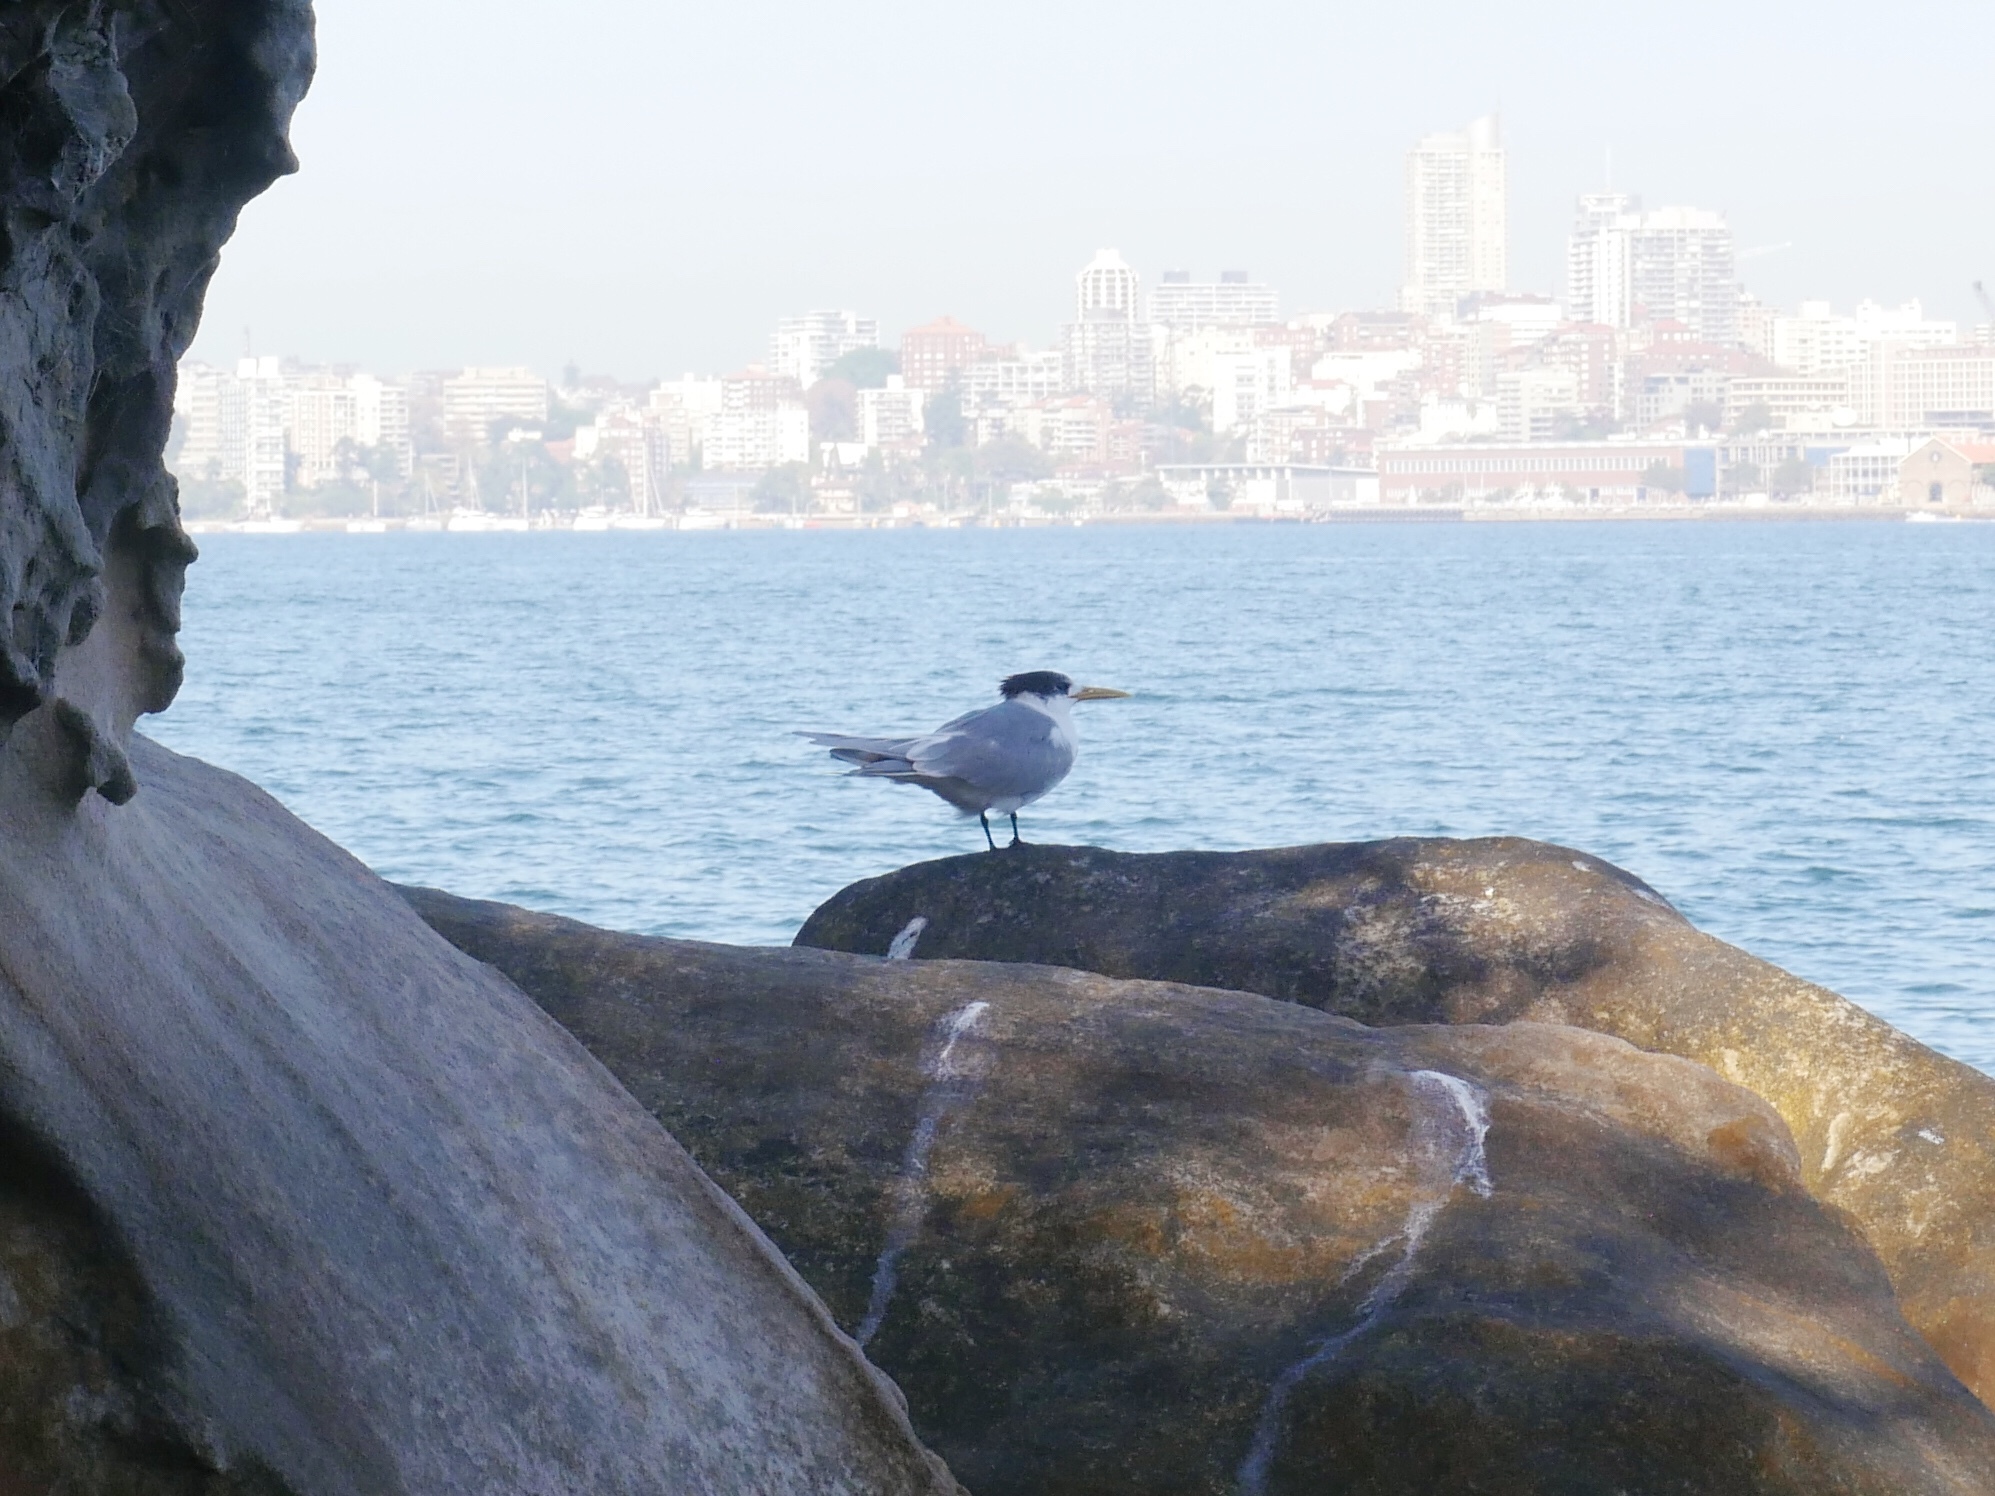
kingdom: Animalia
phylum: Chordata
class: Aves
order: Charadriiformes
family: Laridae
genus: Thalasseus
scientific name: Thalasseus bergii
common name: Greater crested tern
